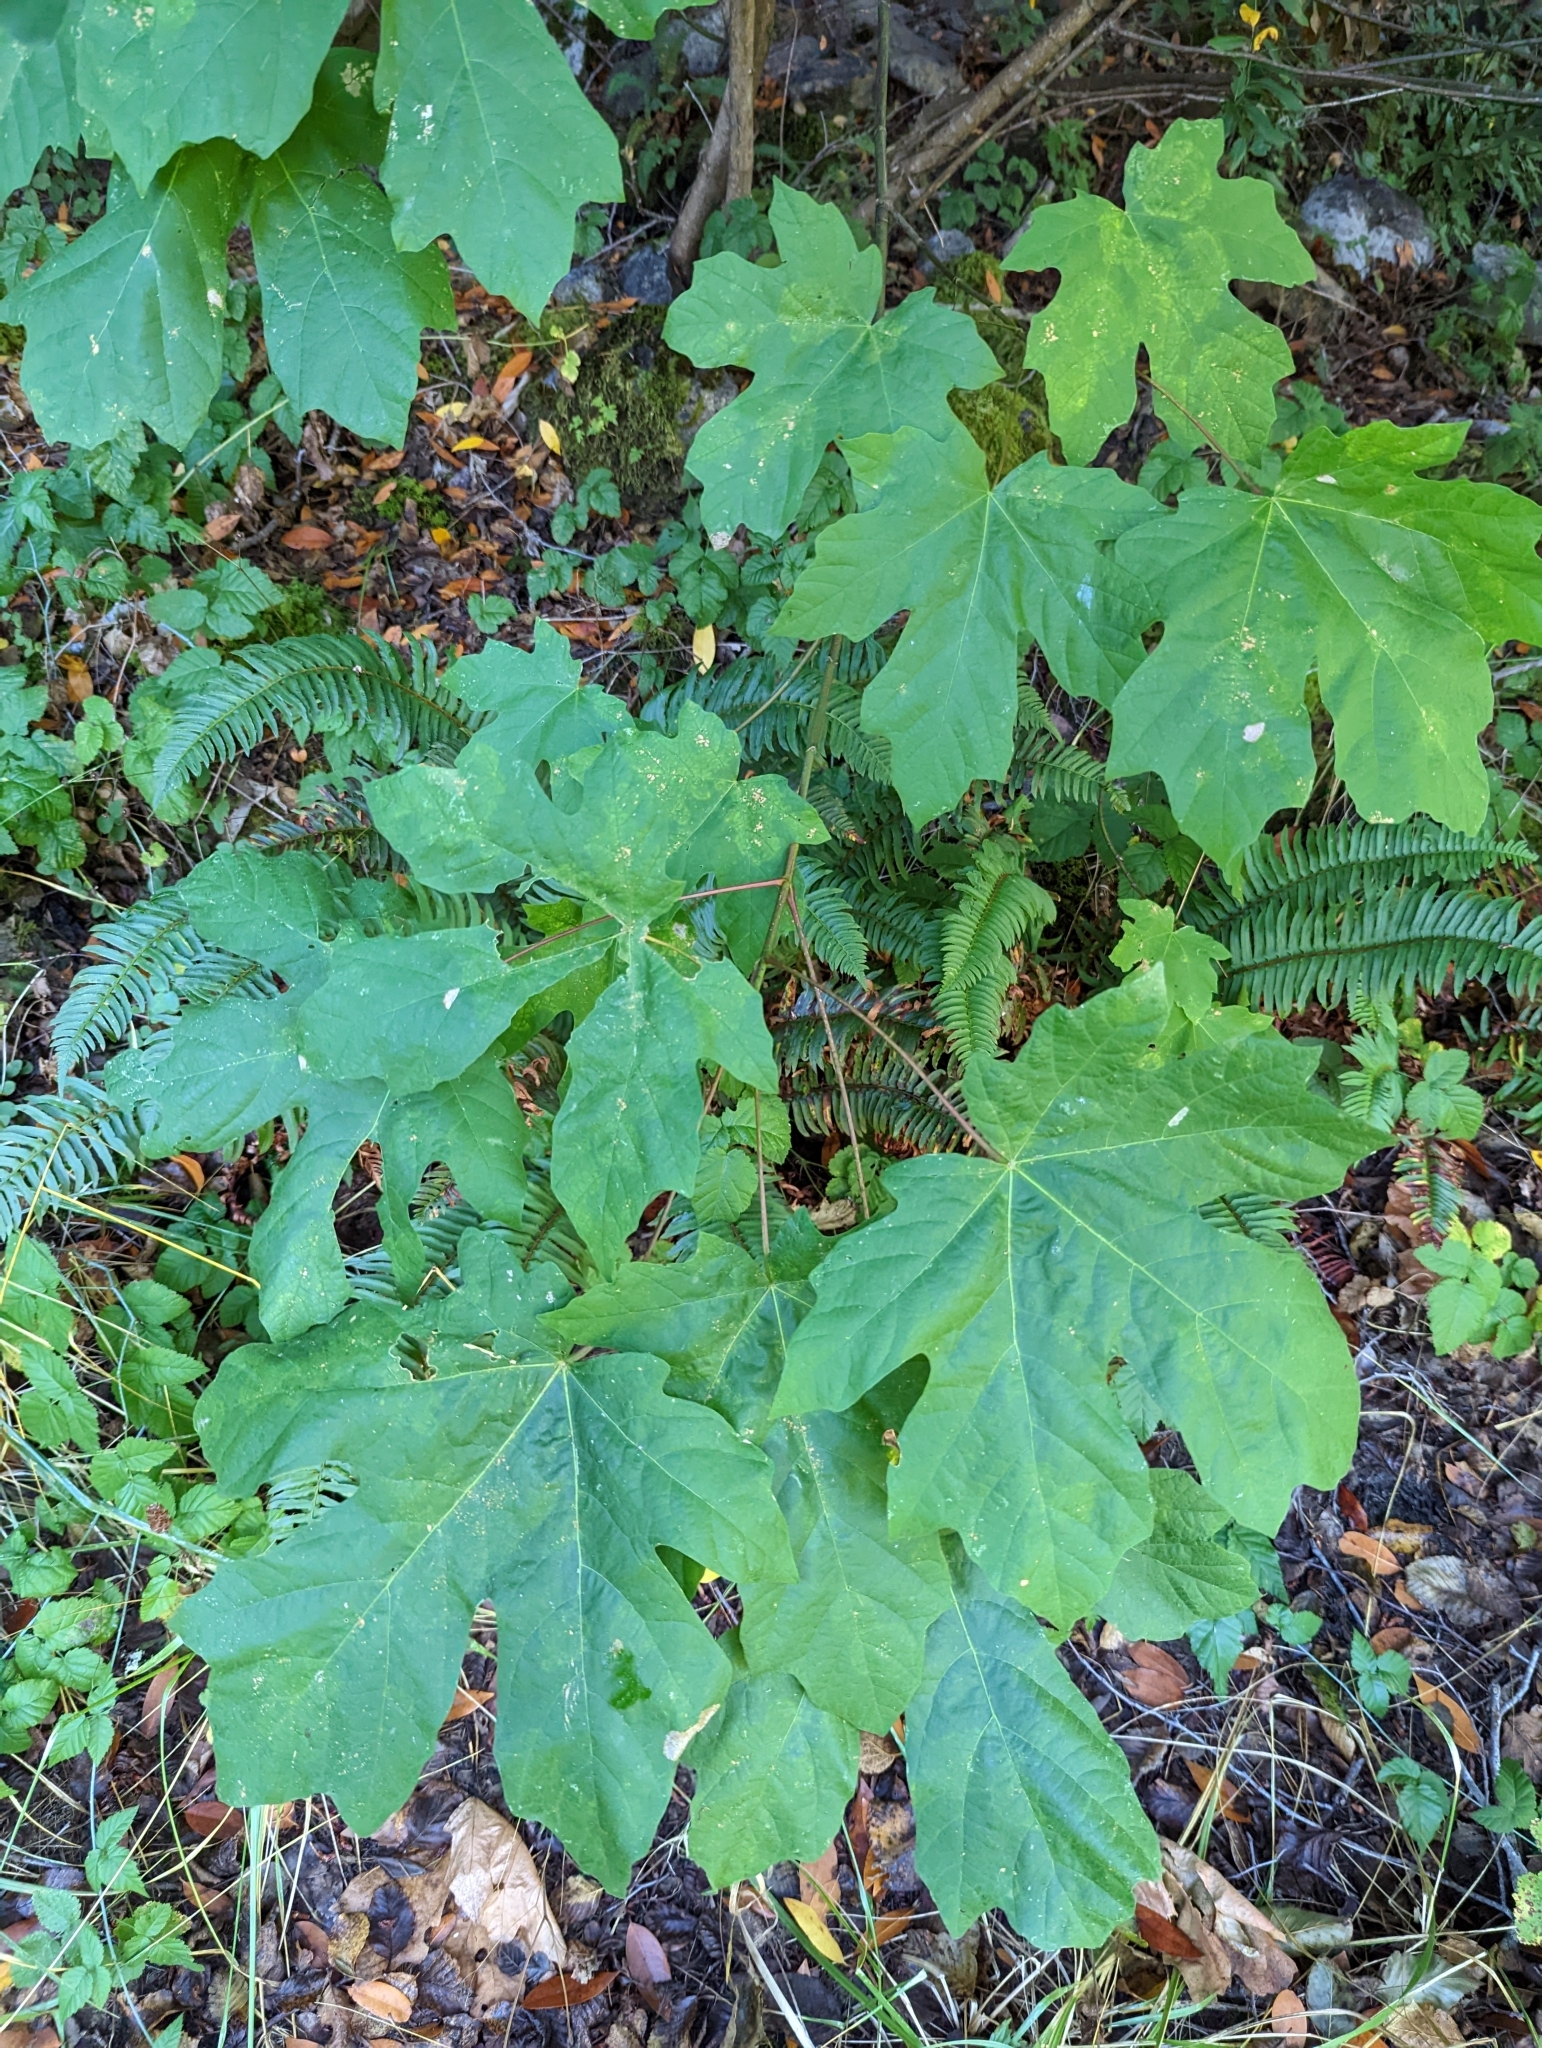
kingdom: Plantae
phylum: Tracheophyta
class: Magnoliopsida
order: Sapindales
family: Sapindaceae
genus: Acer
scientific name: Acer macrophyllum
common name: Oregon maple
